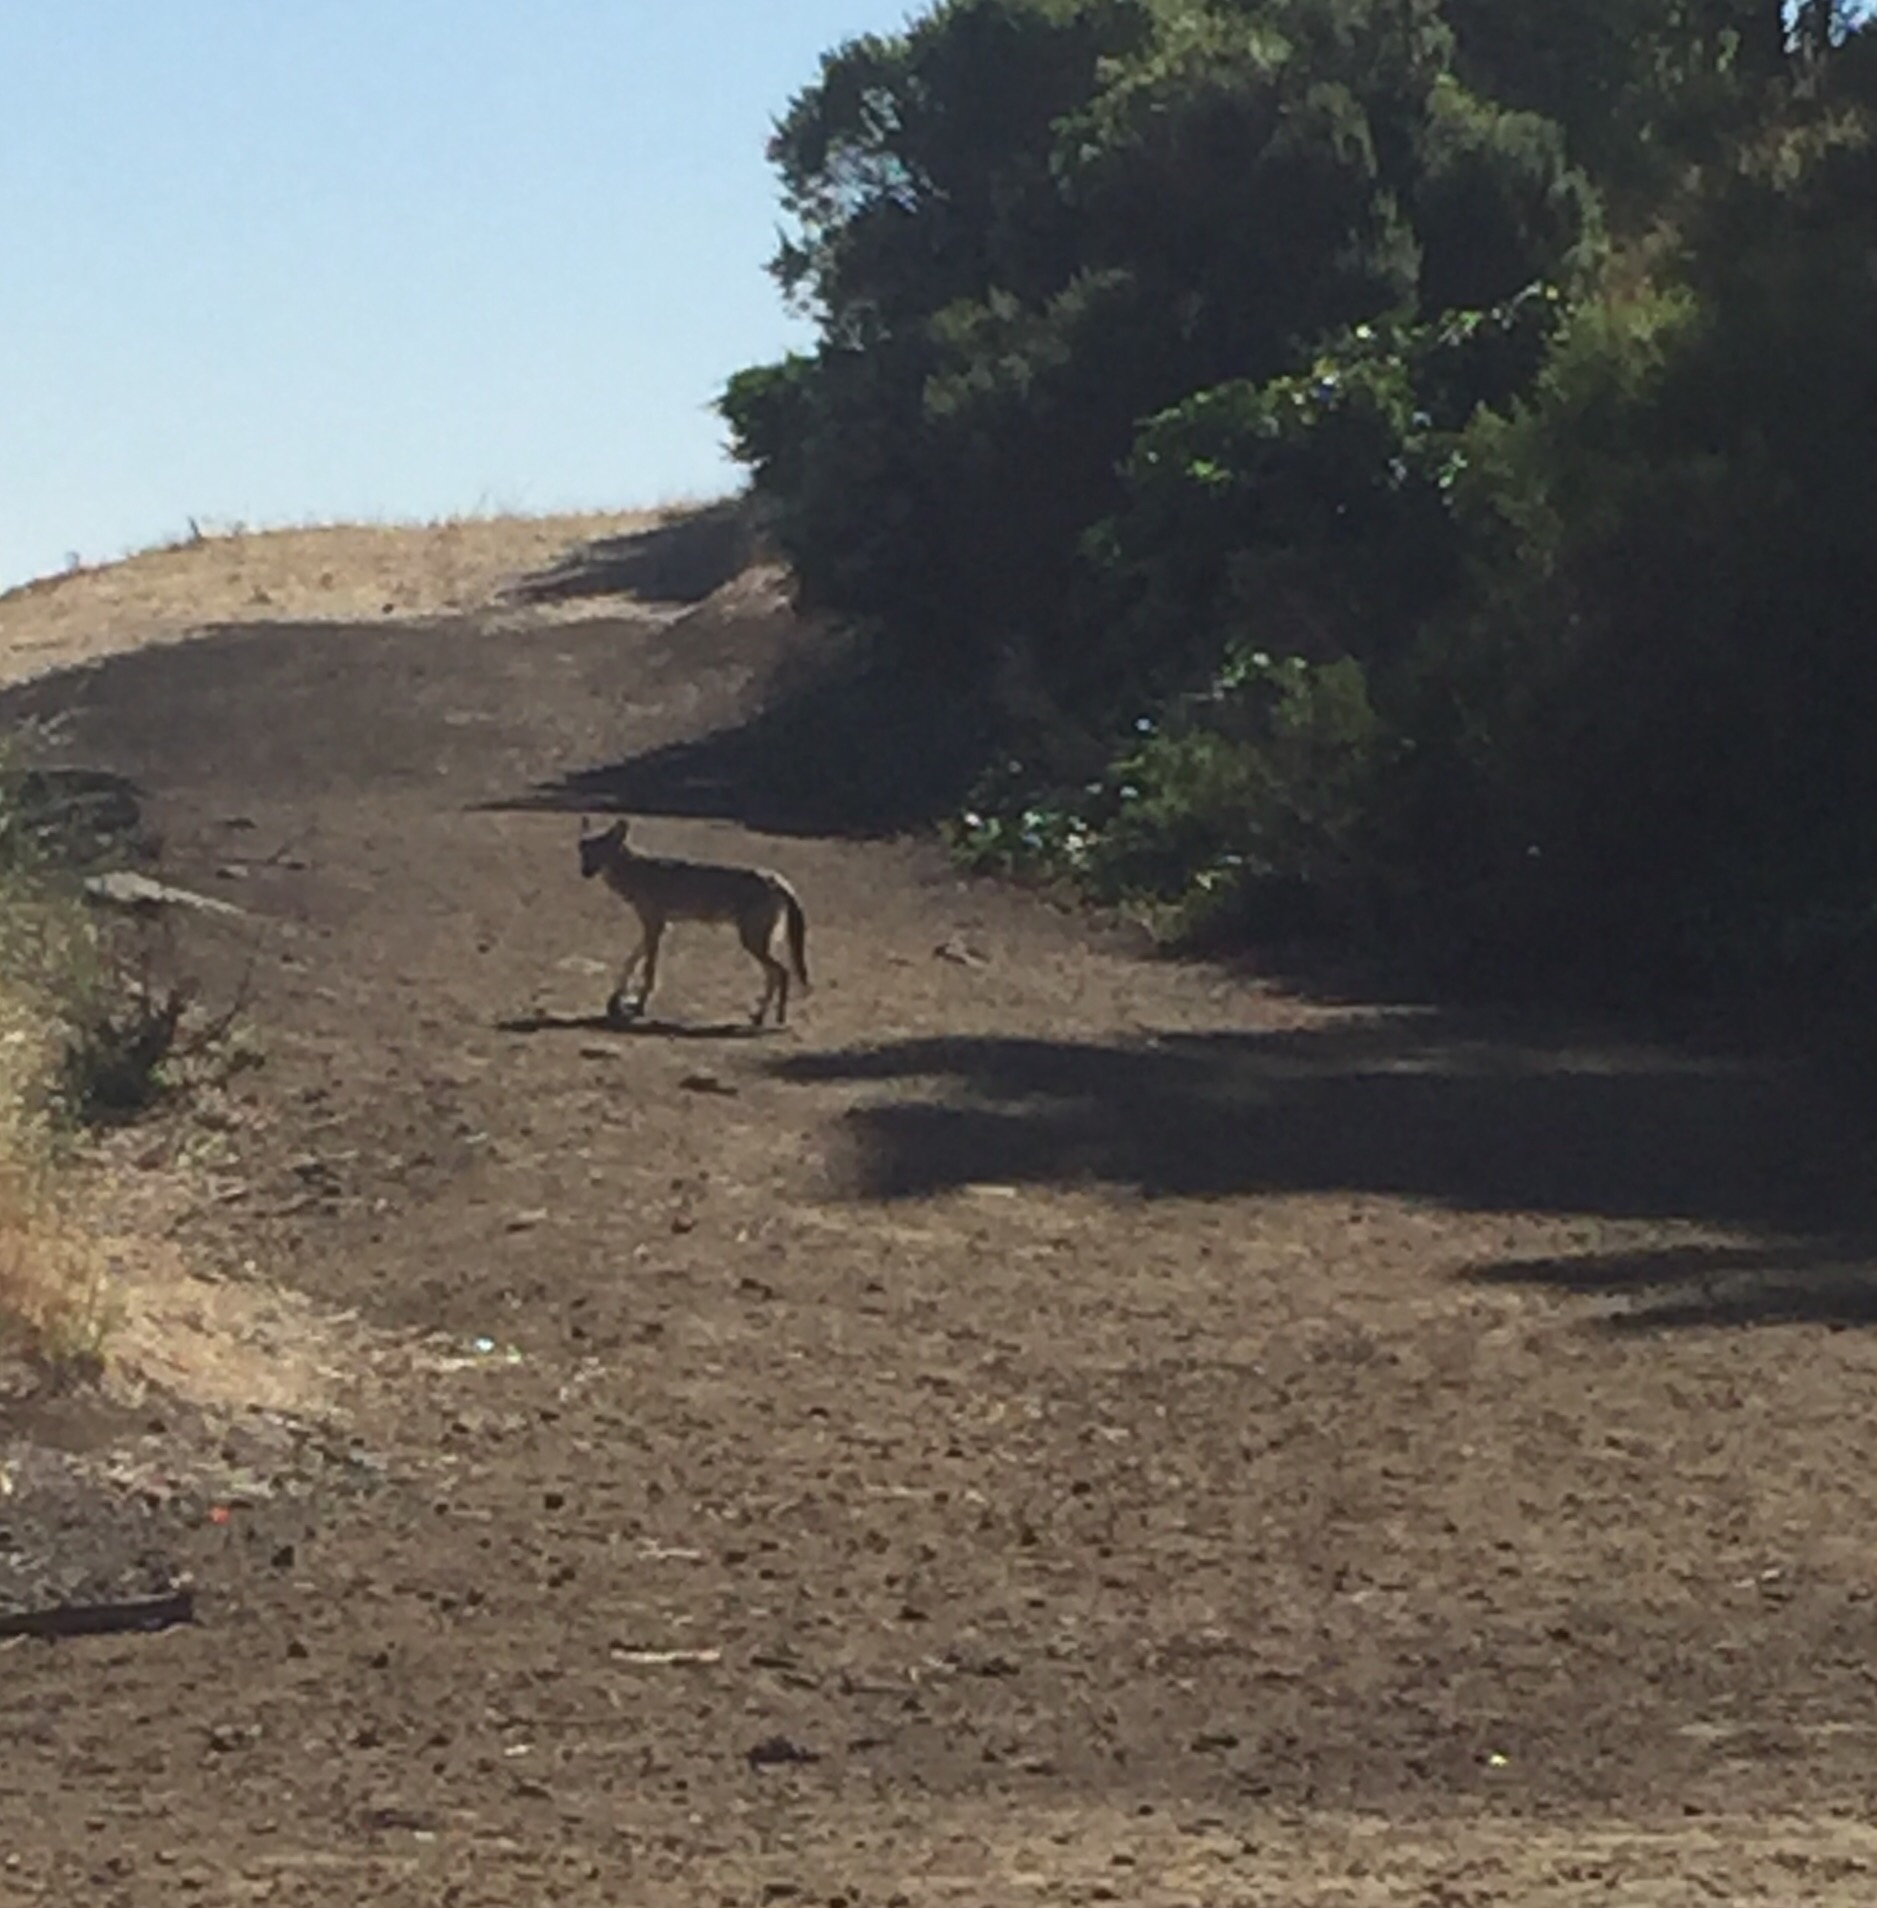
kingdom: Animalia
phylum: Chordata
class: Mammalia
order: Carnivora
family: Canidae
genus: Canis
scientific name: Canis latrans
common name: Coyote
